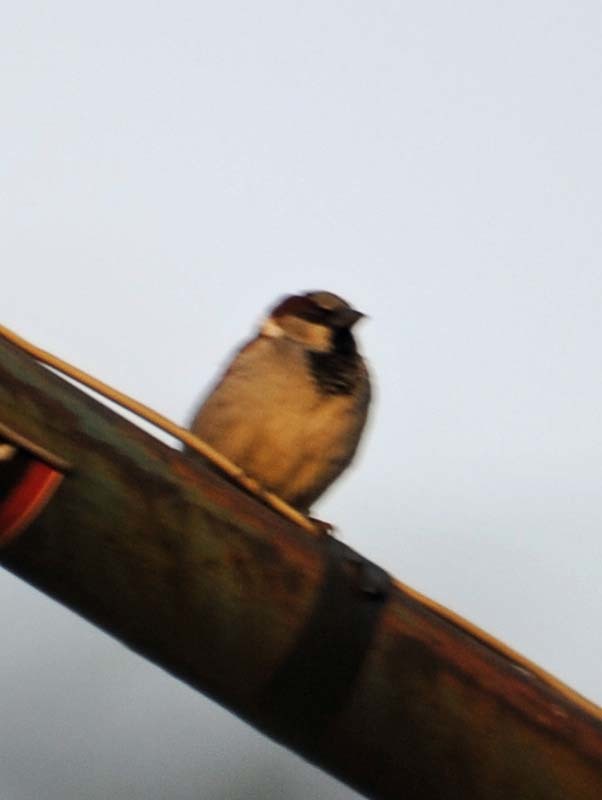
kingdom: Animalia
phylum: Chordata
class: Aves
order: Passeriformes
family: Passeridae
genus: Passer
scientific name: Passer domesticus
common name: House sparrow
